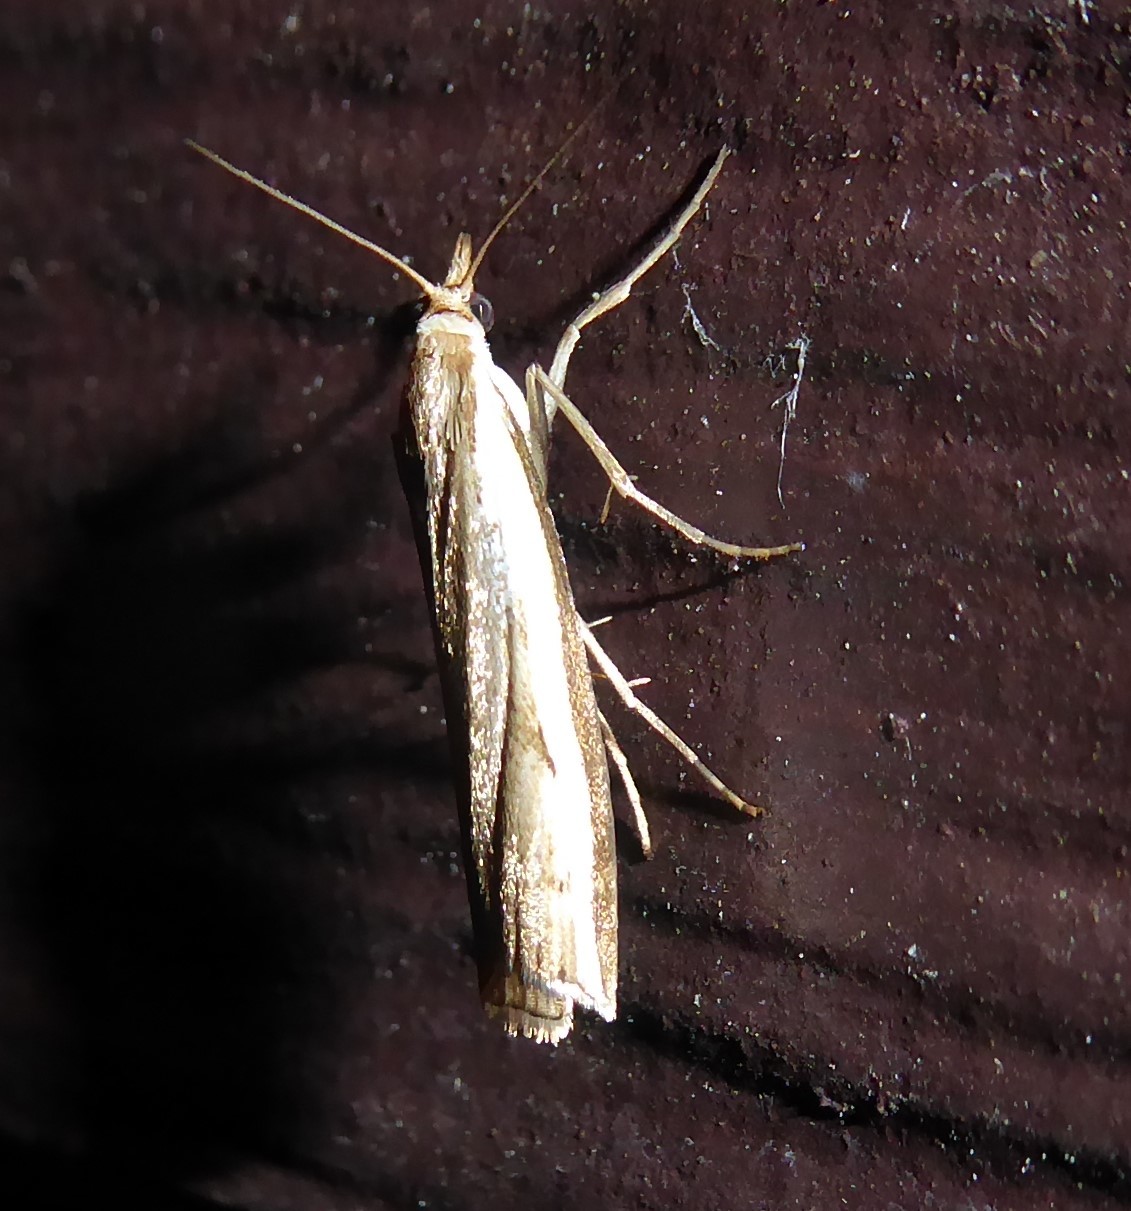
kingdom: Animalia
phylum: Arthropoda
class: Insecta
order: Lepidoptera
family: Crambidae
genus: Orocrambus
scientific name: Orocrambus flexuosellus
